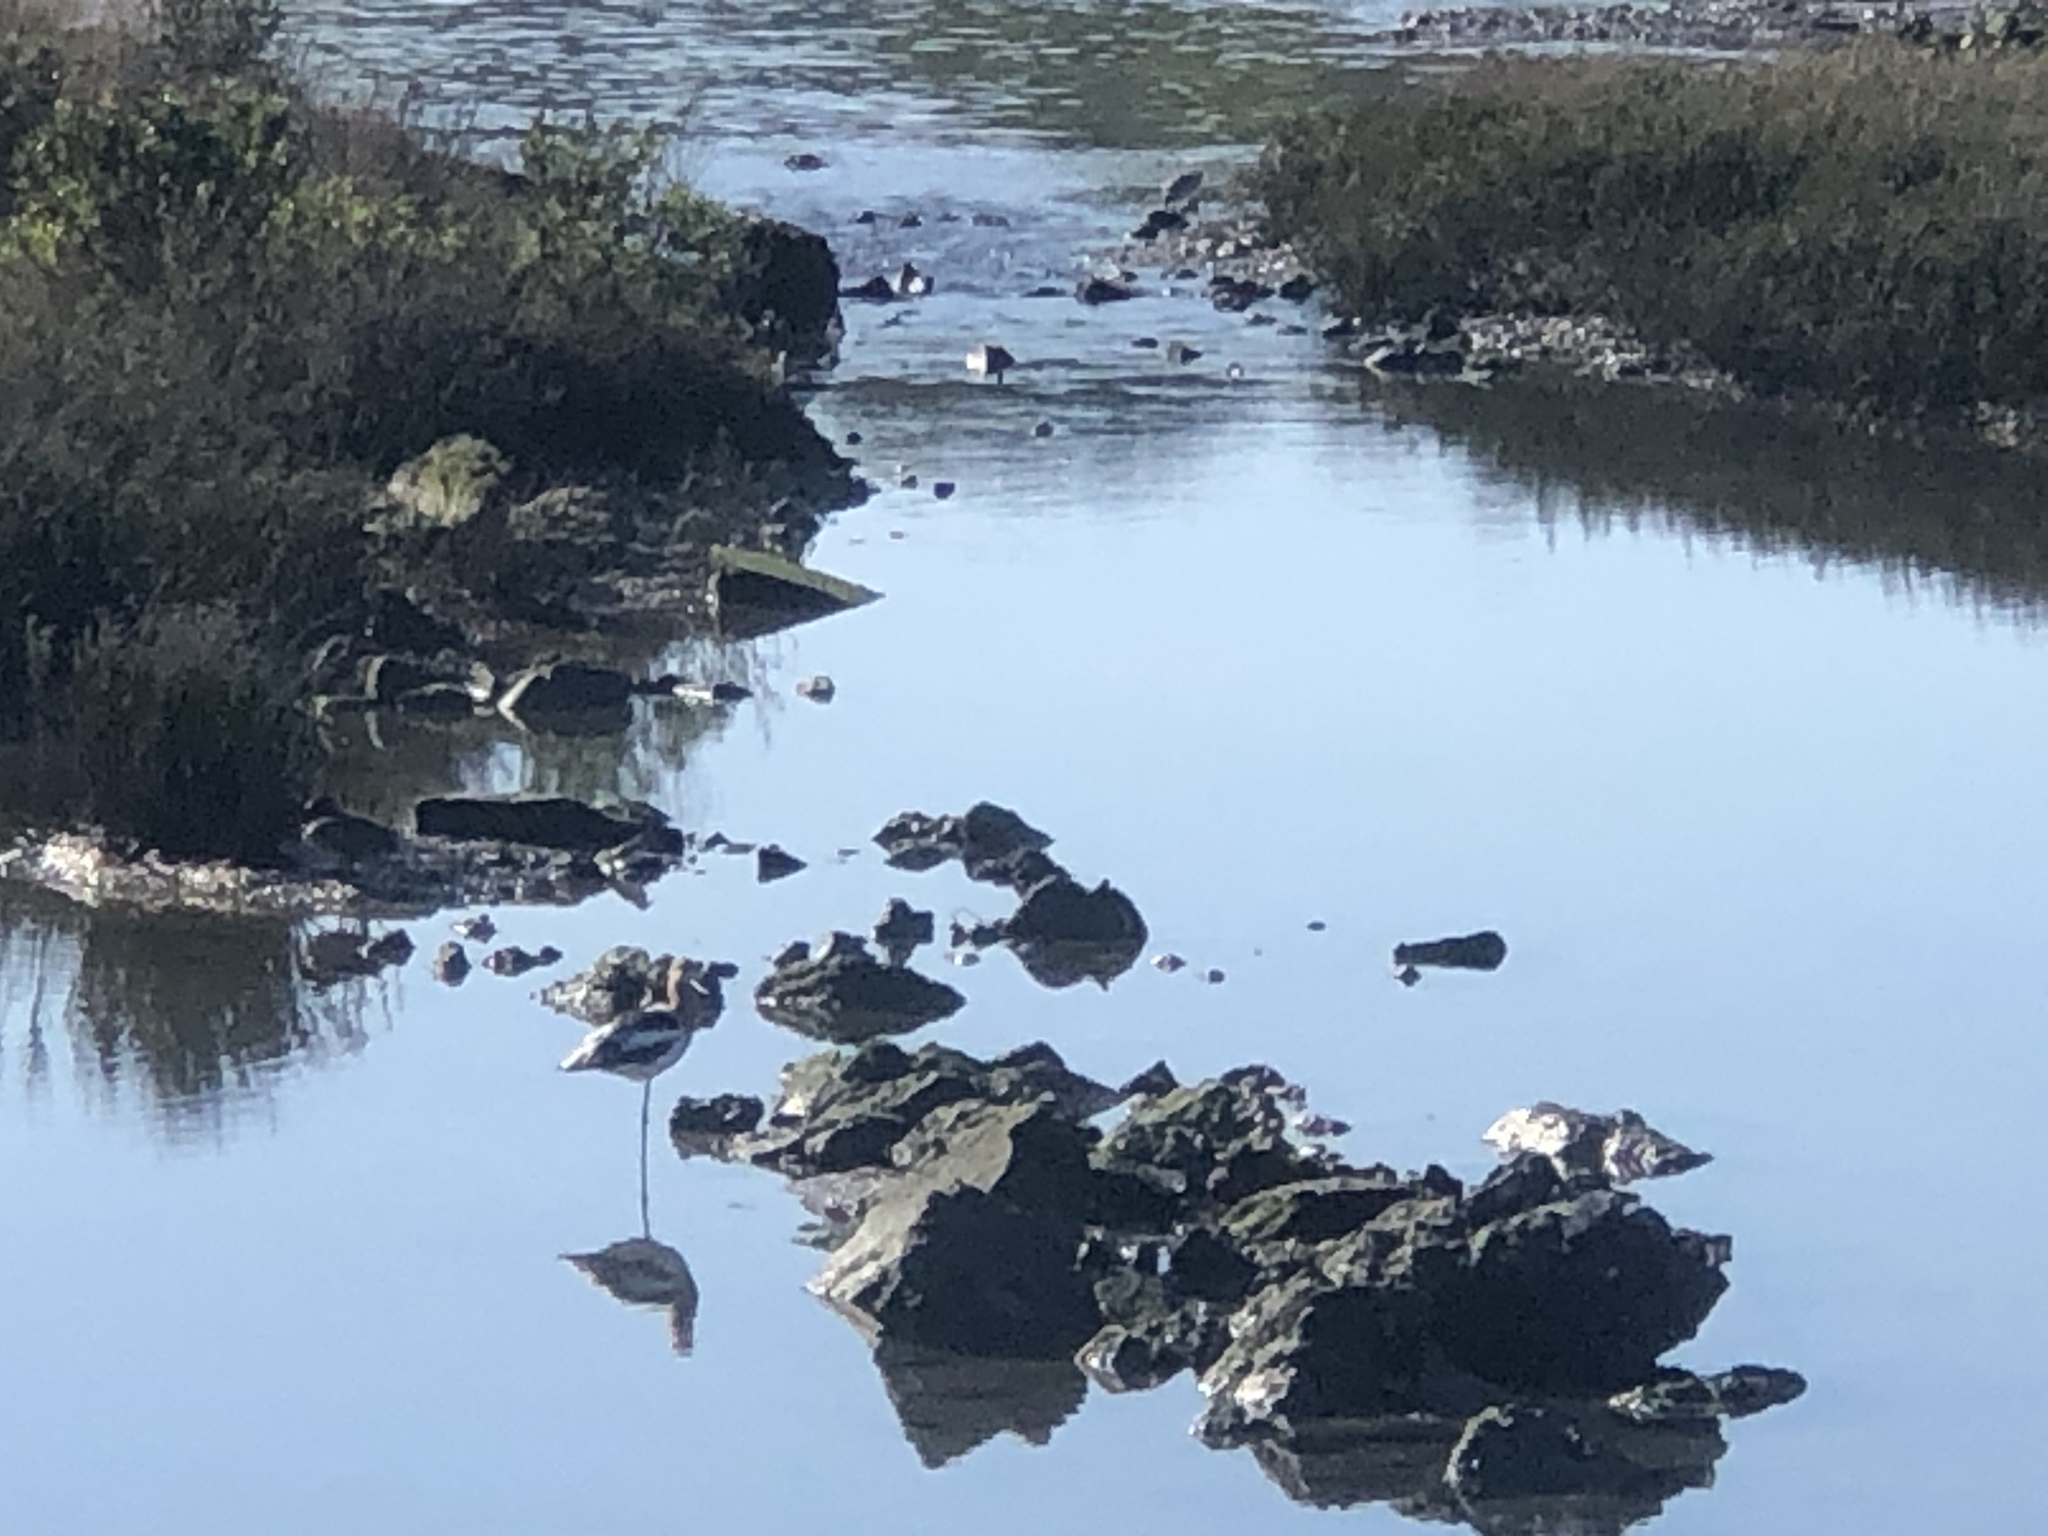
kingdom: Animalia
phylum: Chordata
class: Aves
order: Charadriiformes
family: Recurvirostridae
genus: Recurvirostra
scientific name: Recurvirostra americana
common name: American avocet
